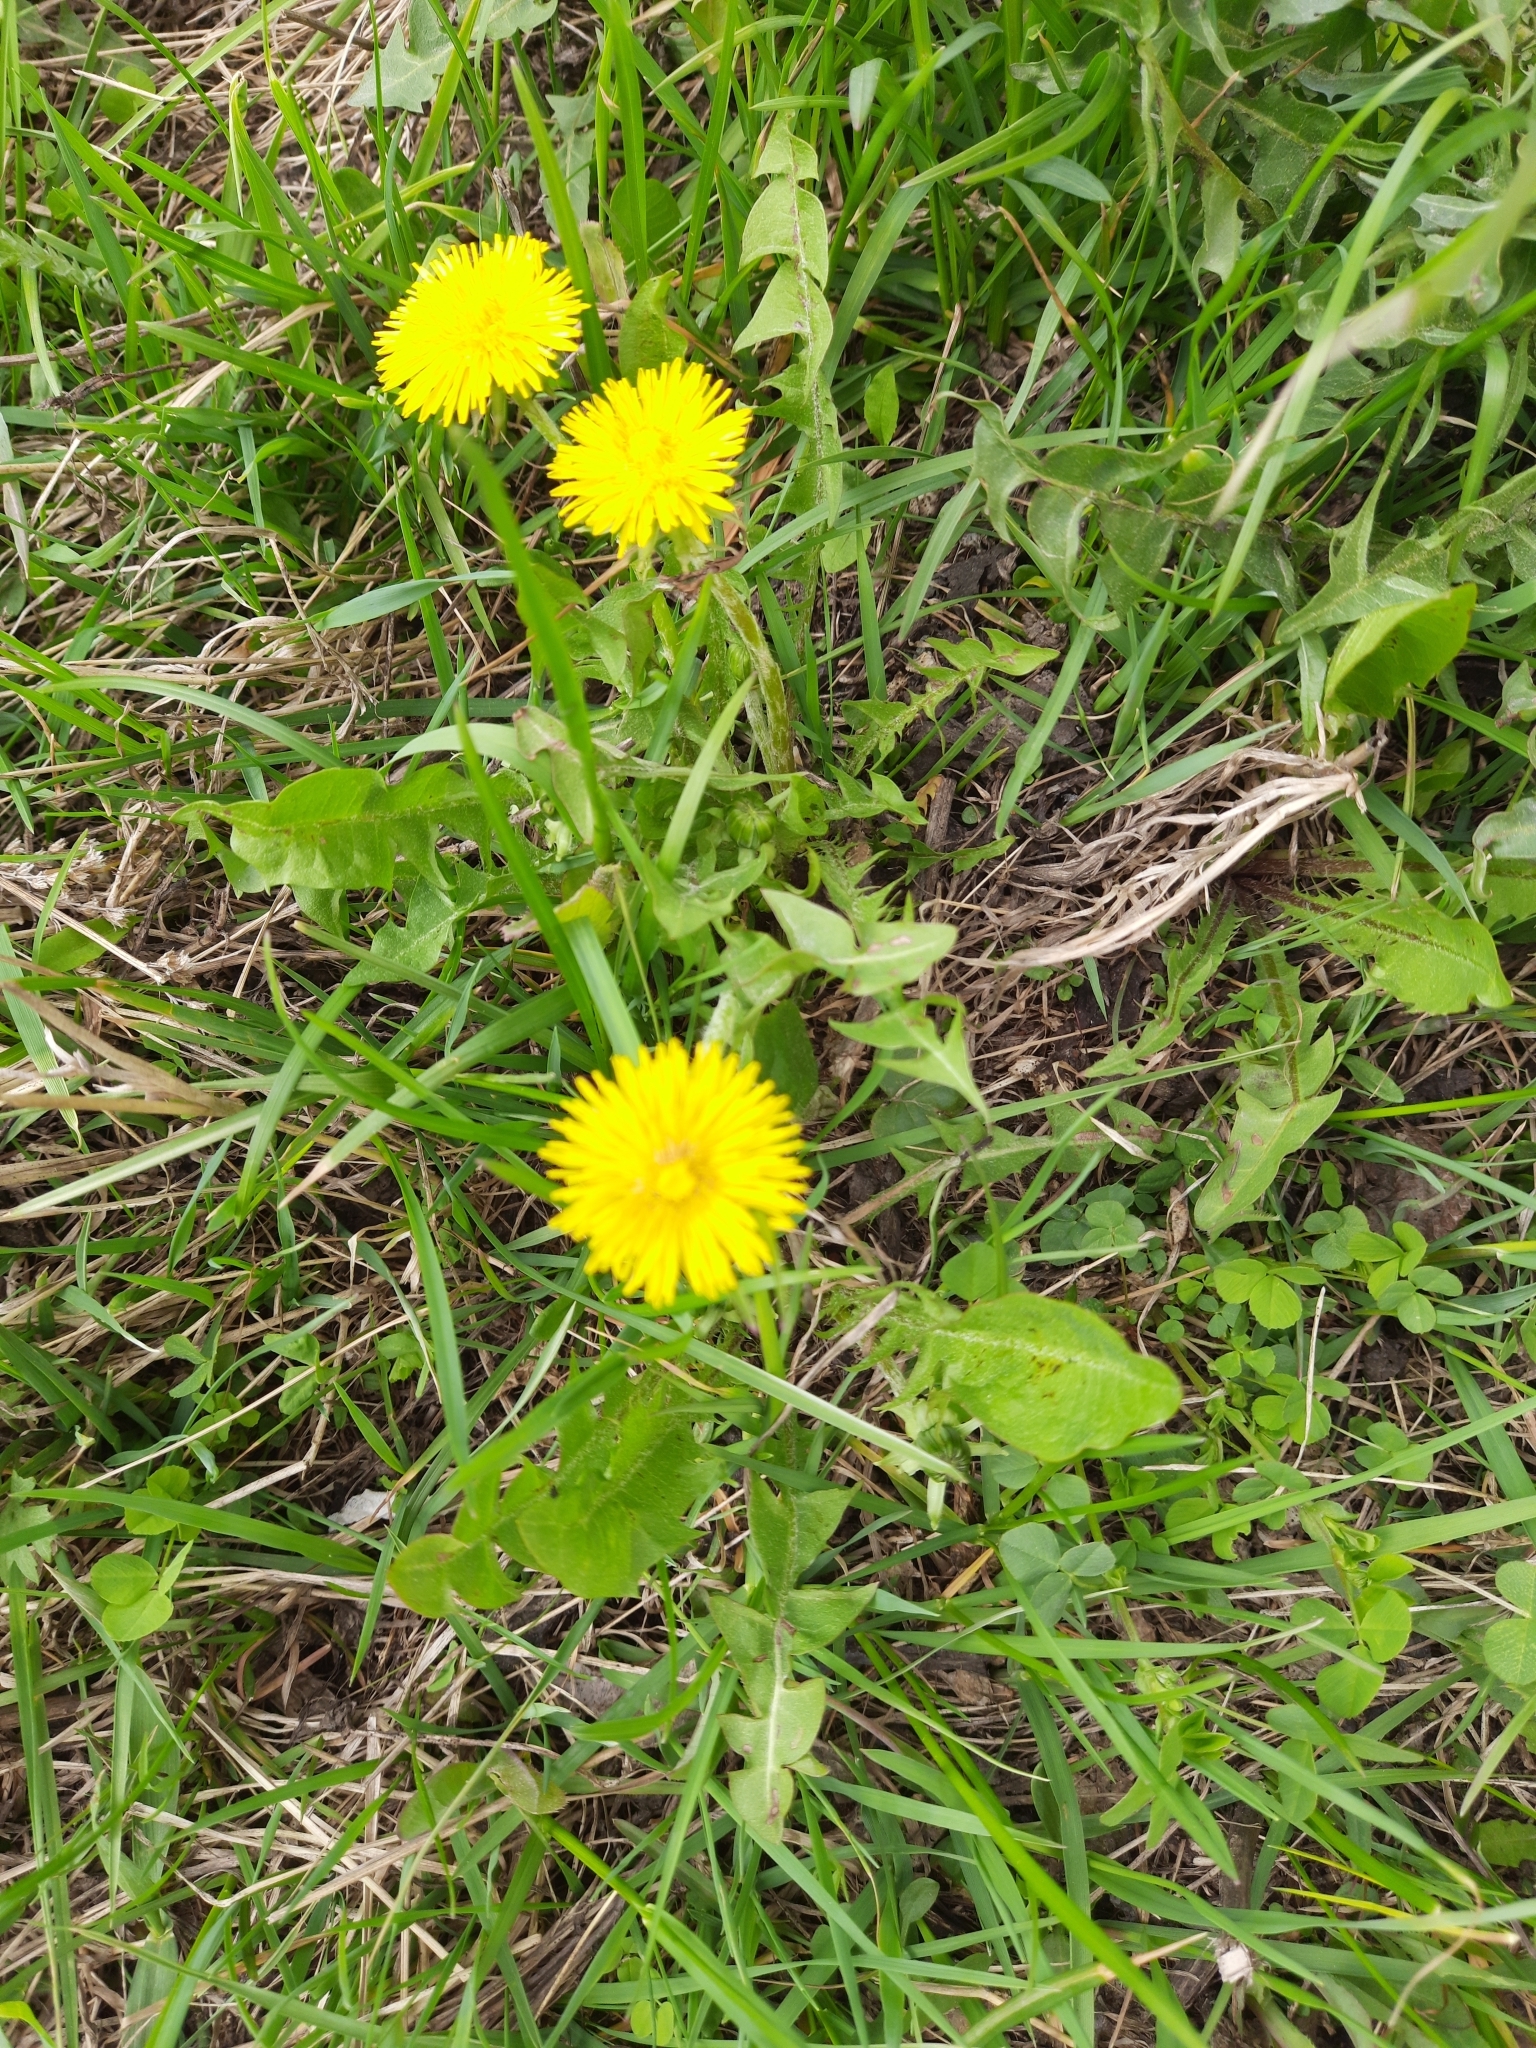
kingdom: Plantae
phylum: Tracheophyta
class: Magnoliopsida
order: Asterales
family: Asteraceae
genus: Taraxacum
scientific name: Taraxacum officinale
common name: Common dandelion
